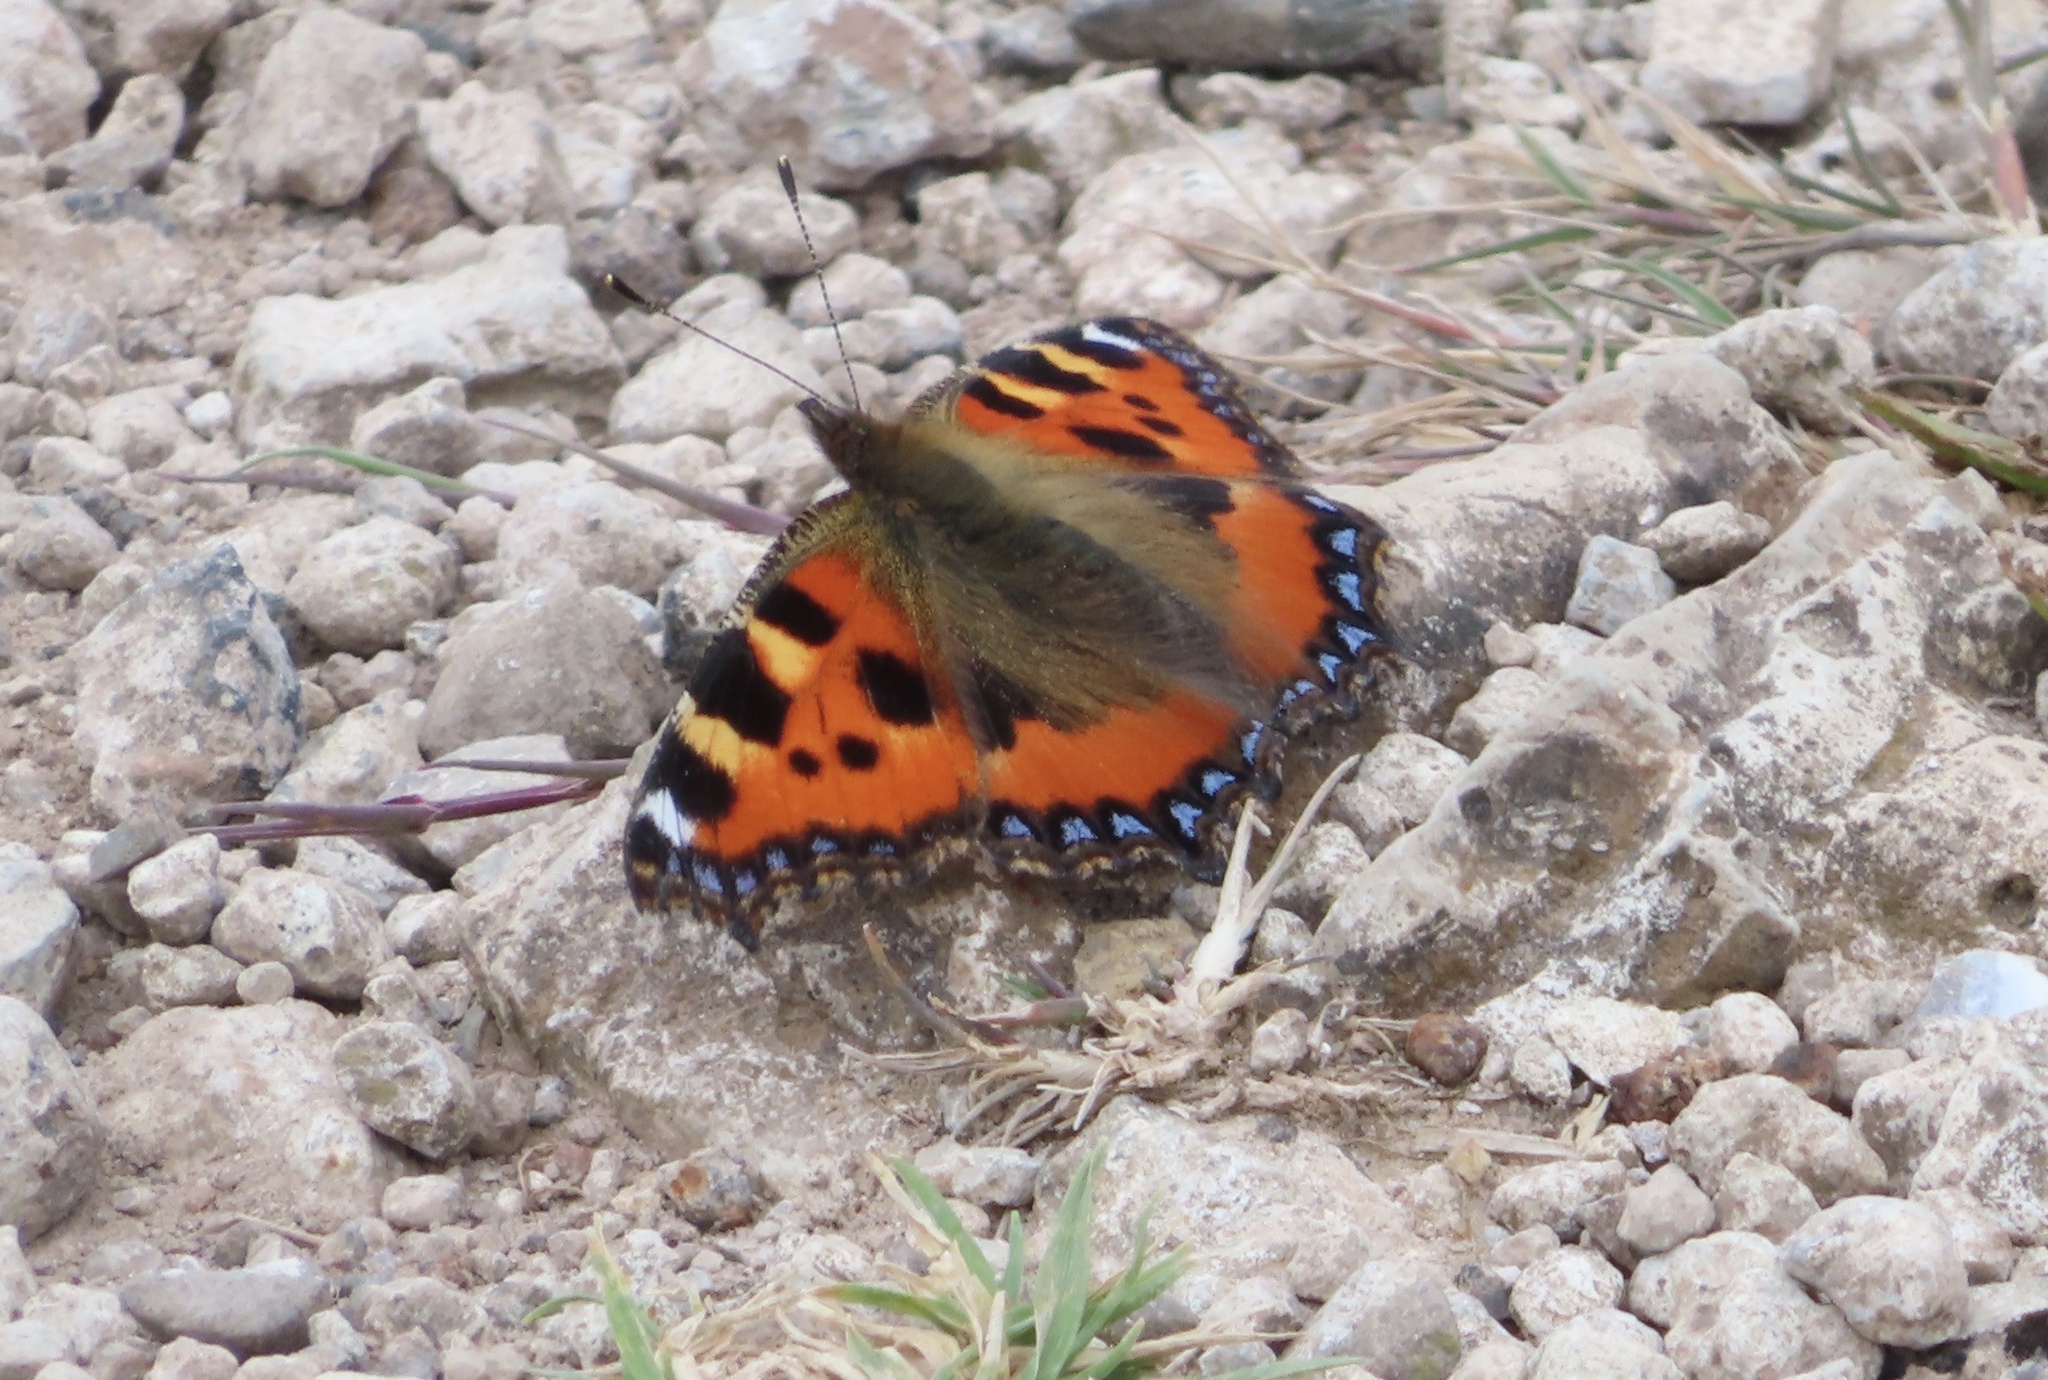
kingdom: Animalia
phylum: Arthropoda
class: Insecta
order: Lepidoptera
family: Nymphalidae
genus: Aglais
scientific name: Aglais urticae
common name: Small tortoiseshell
